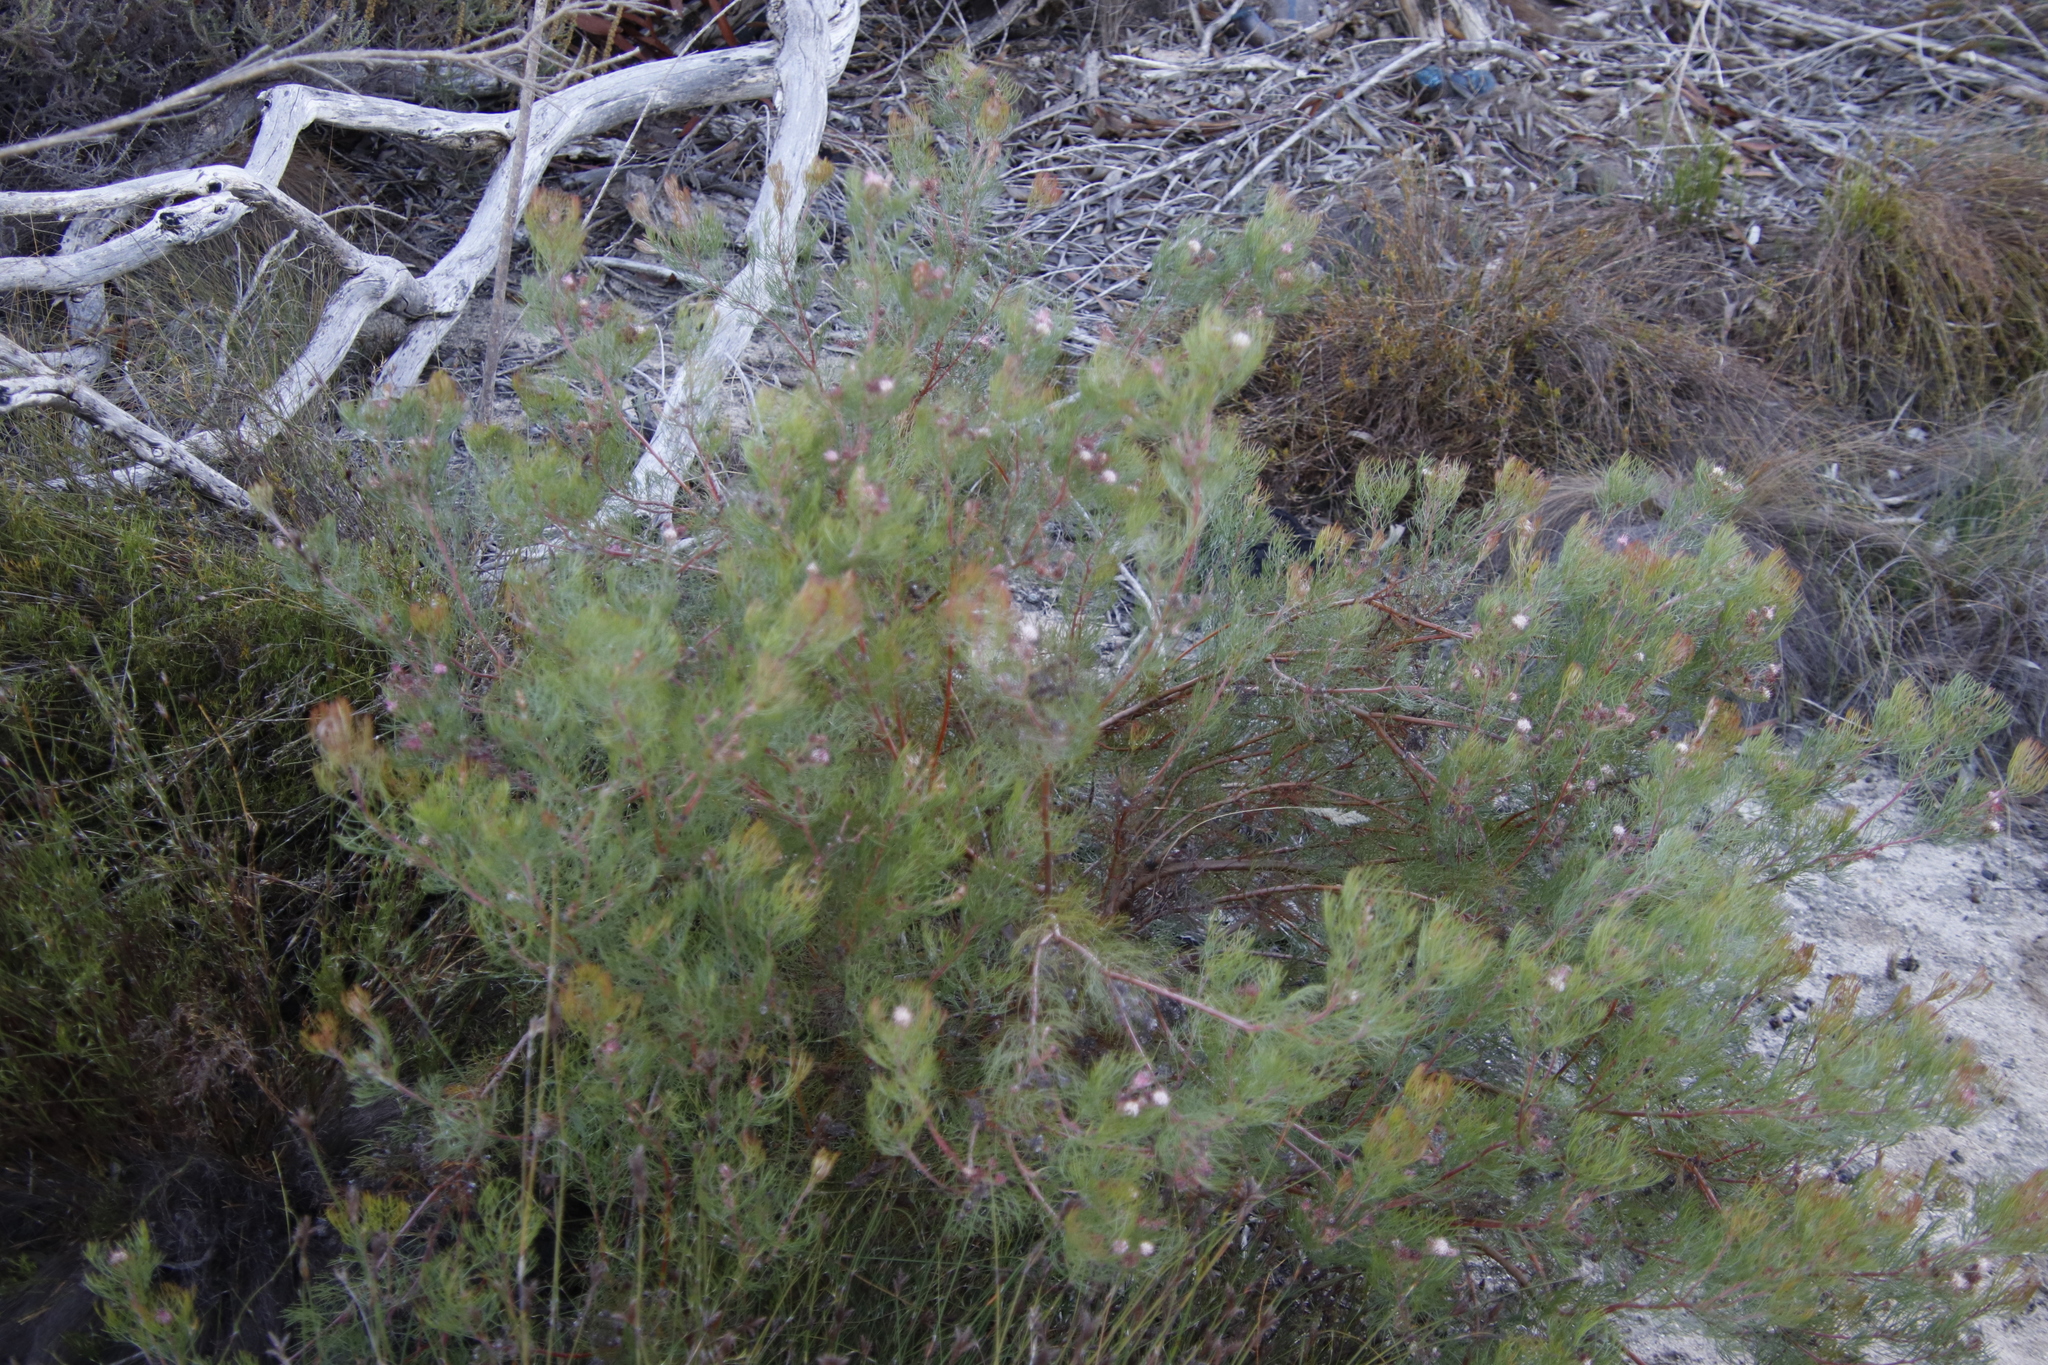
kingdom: Plantae
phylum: Tracheophyta
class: Magnoliopsida
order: Proteales
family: Proteaceae
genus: Serruria
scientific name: Serruria fasciflora
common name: Common pin spiderhead
